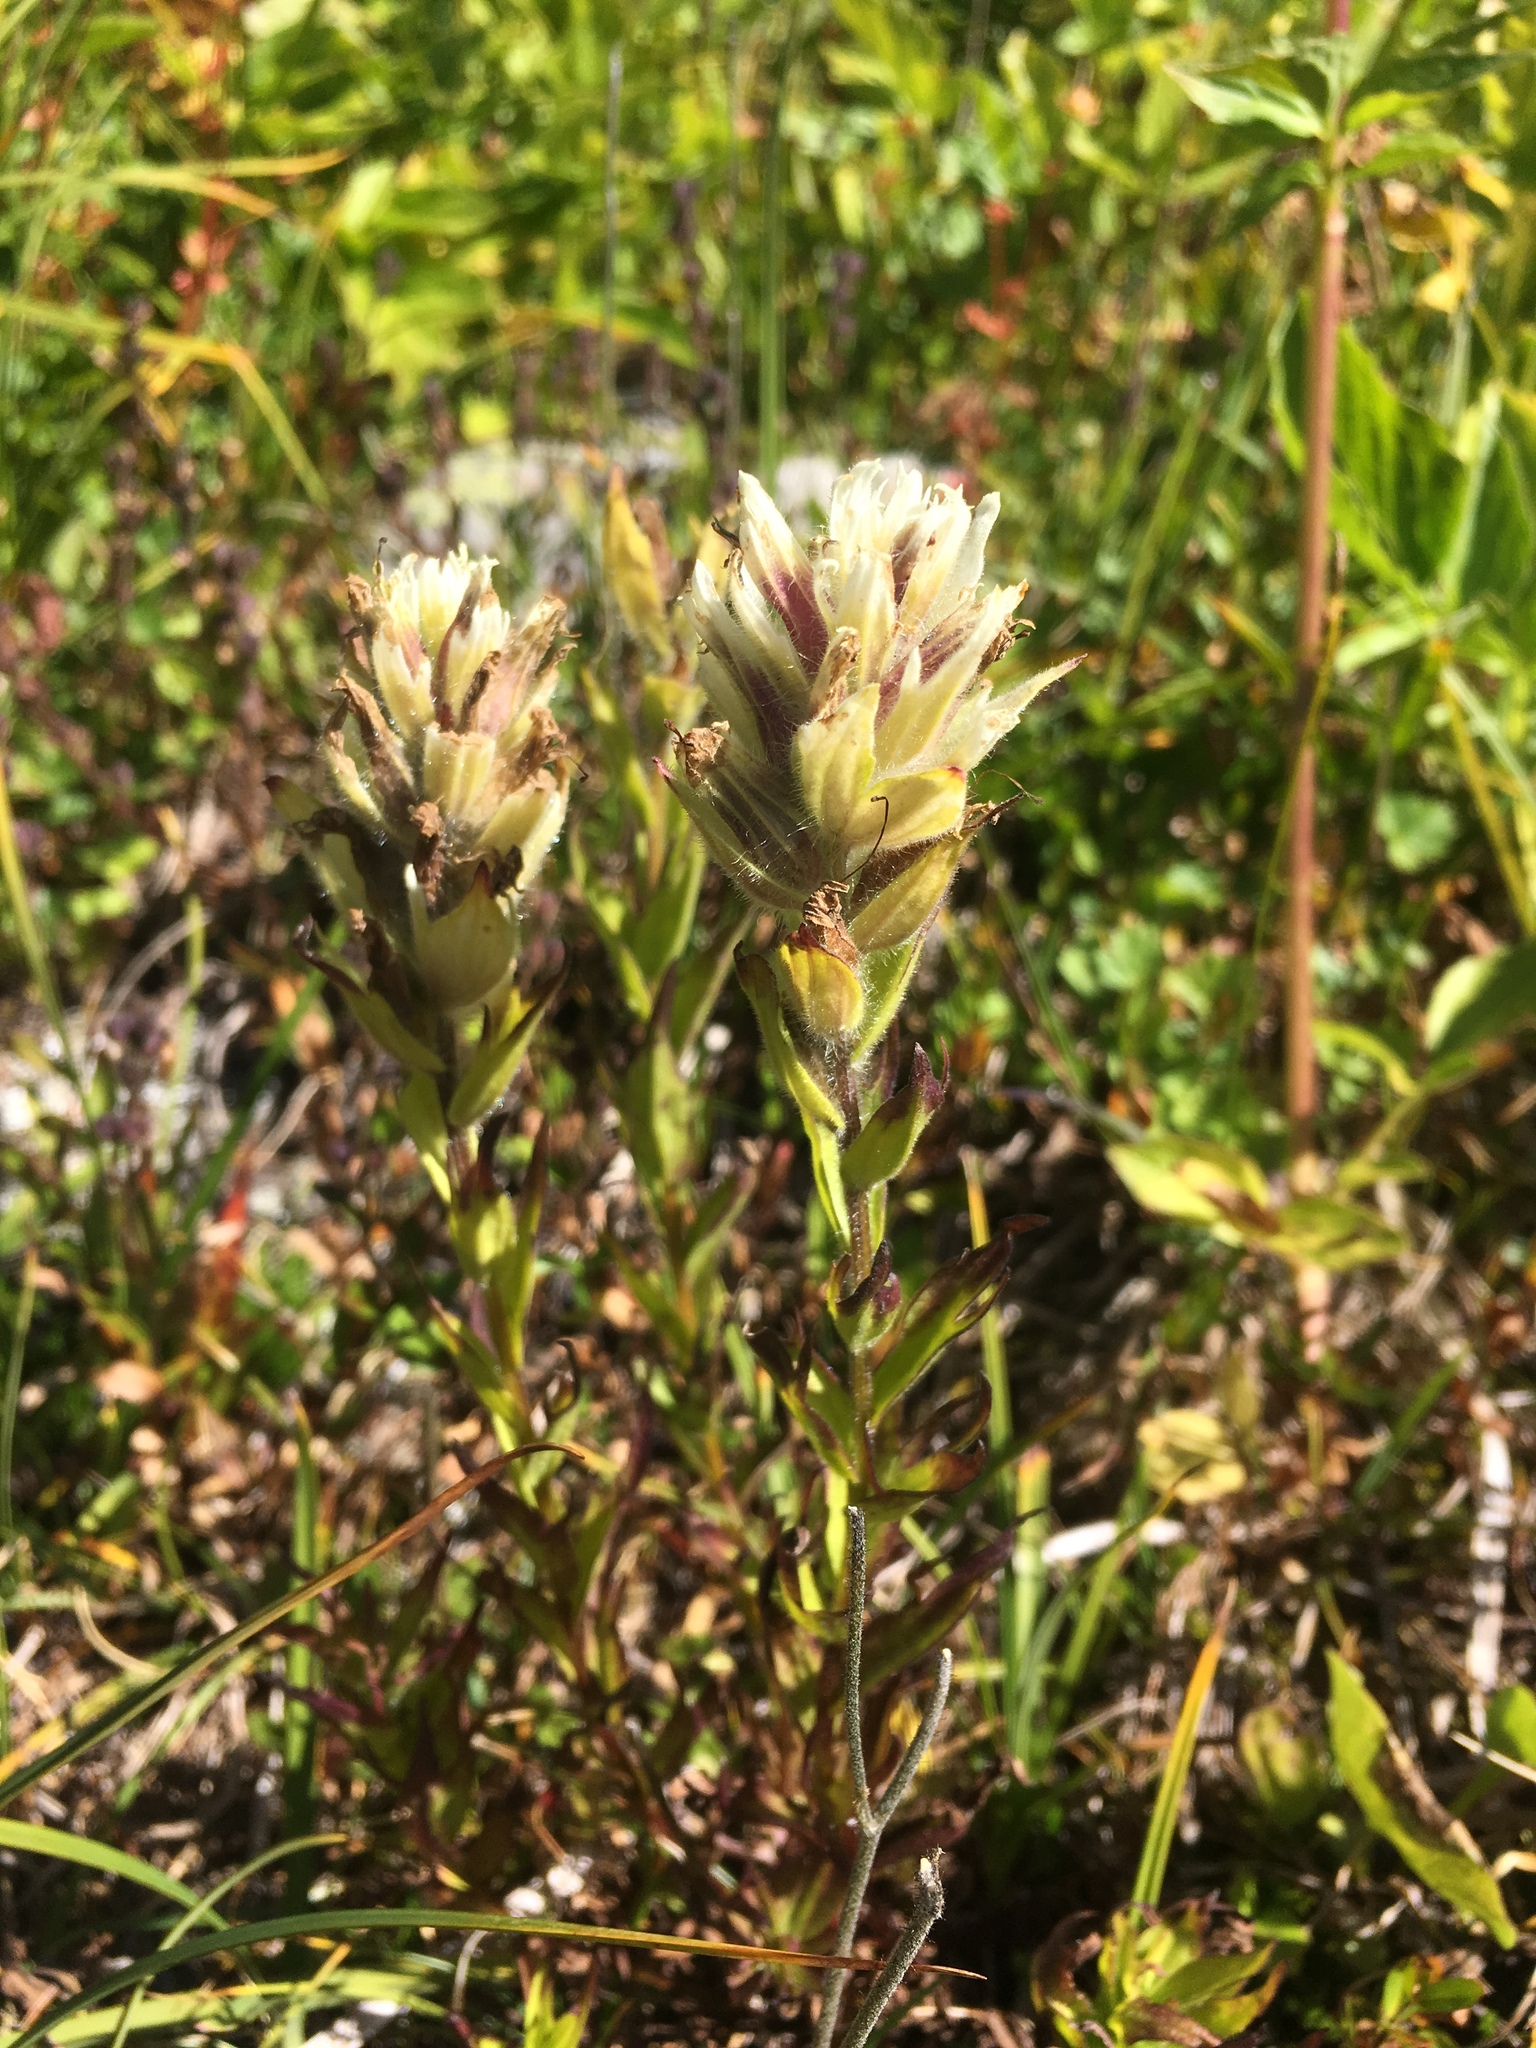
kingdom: Plantae
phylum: Tracheophyta
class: Magnoliopsida
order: Lamiales
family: Orobanchaceae
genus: Castilleja
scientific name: Castilleja parviflora
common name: Mountain paintbrush
